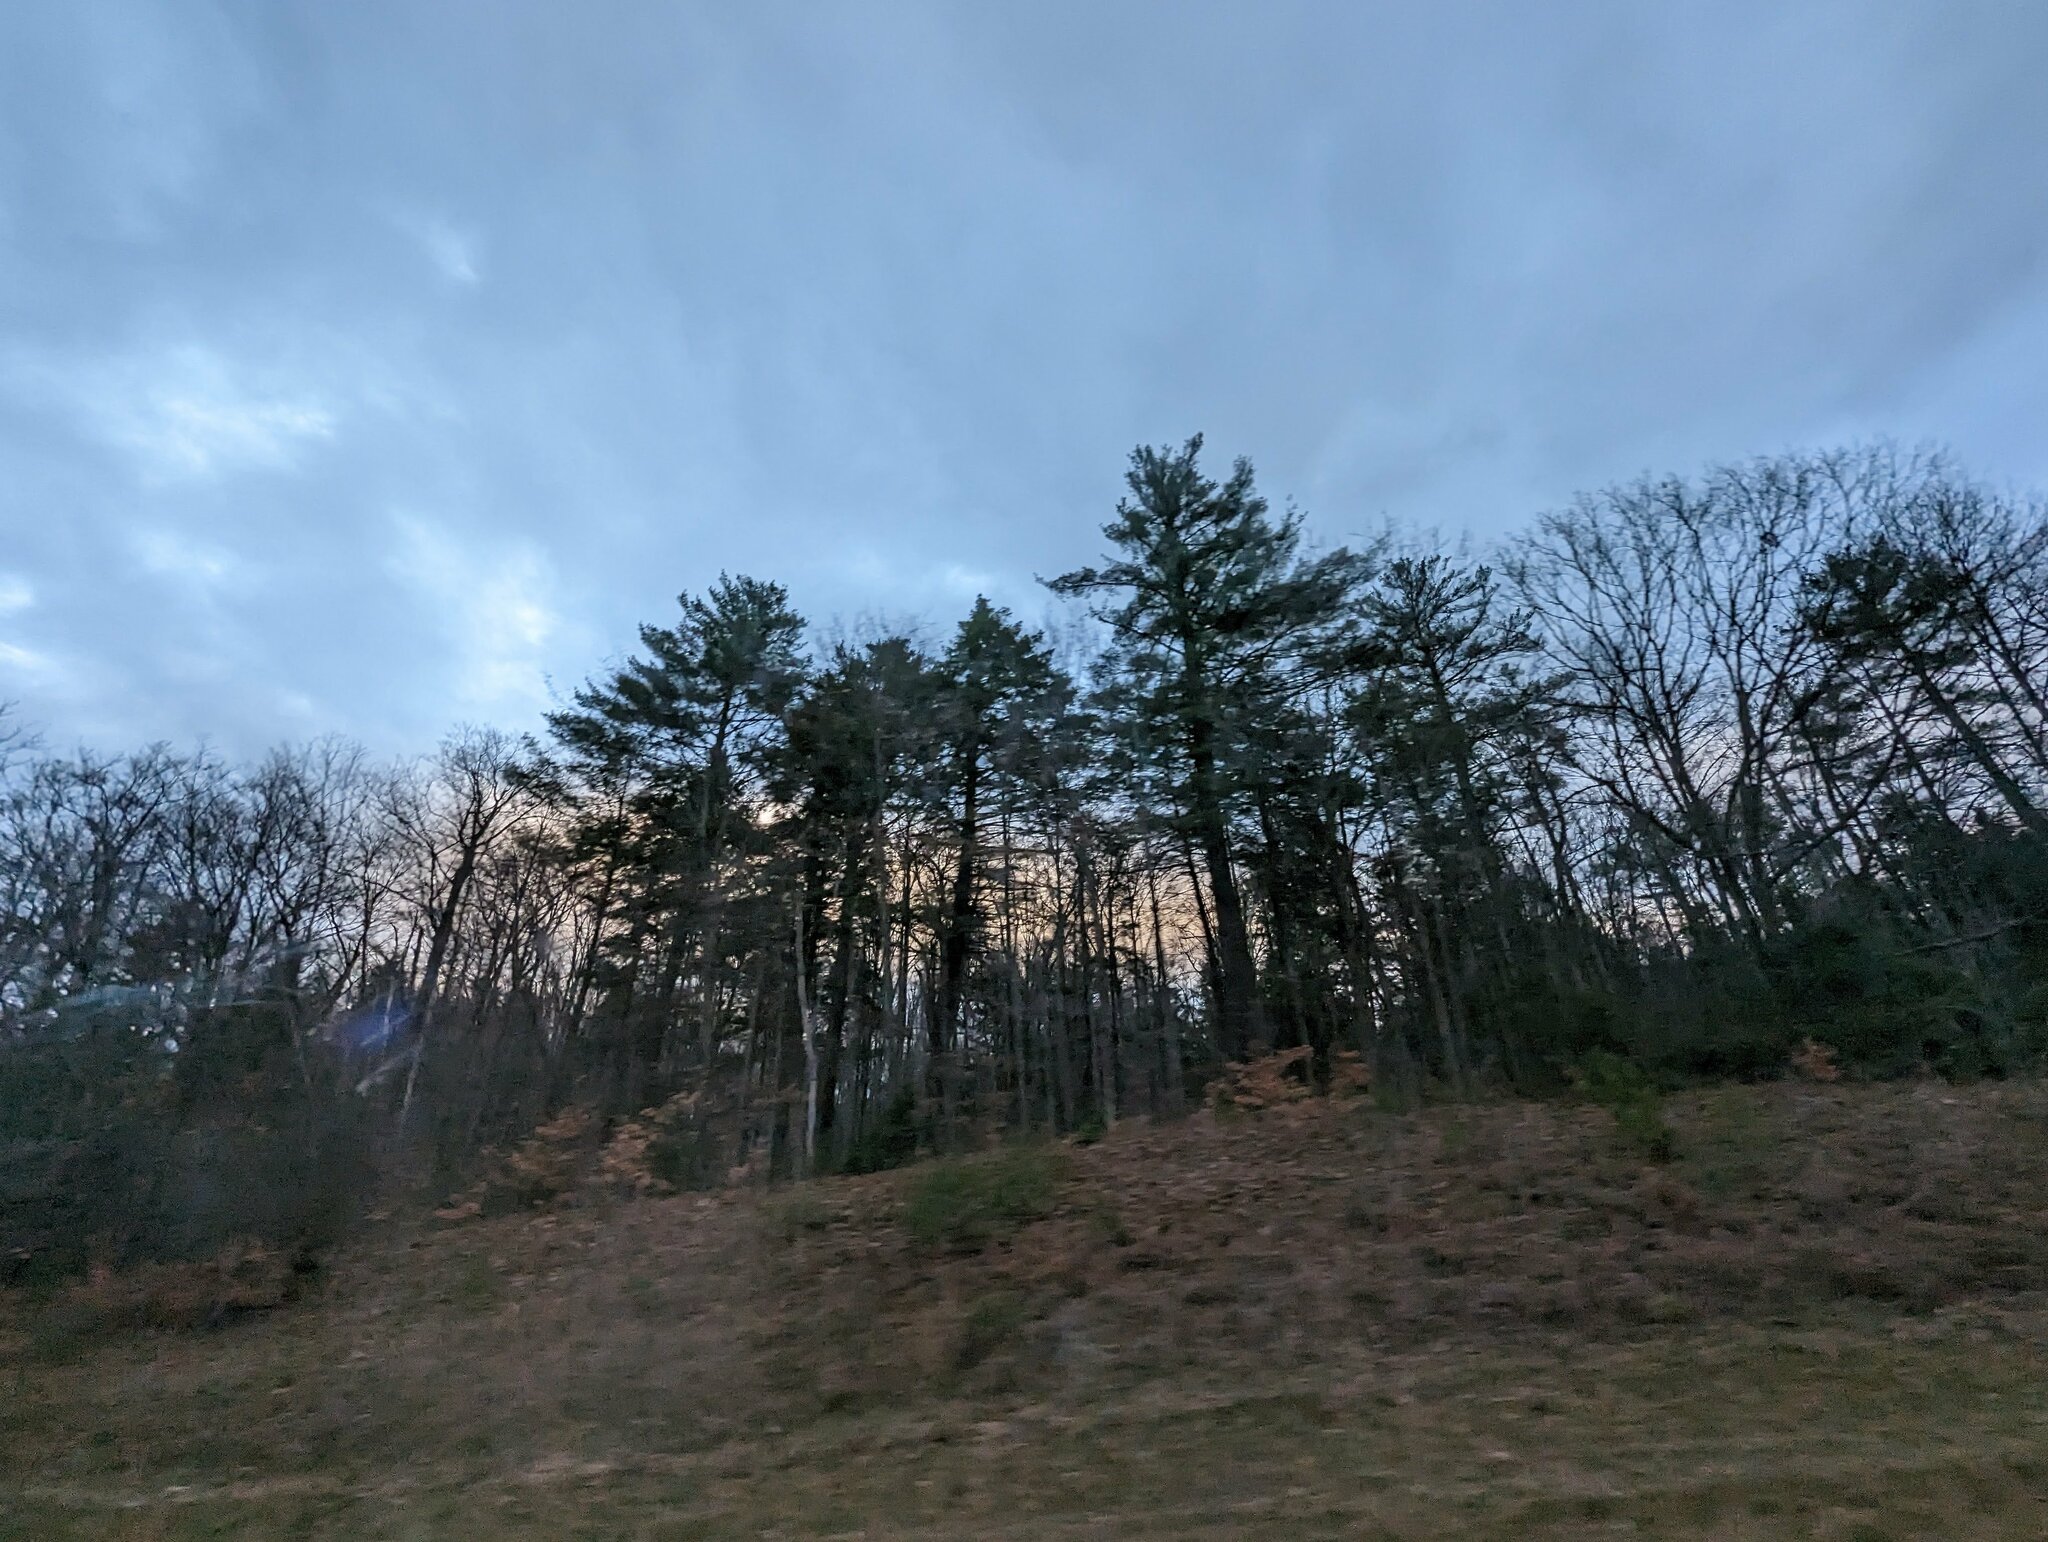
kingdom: Plantae
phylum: Tracheophyta
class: Pinopsida
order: Pinales
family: Pinaceae
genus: Pinus
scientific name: Pinus strobus
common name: Weymouth pine
